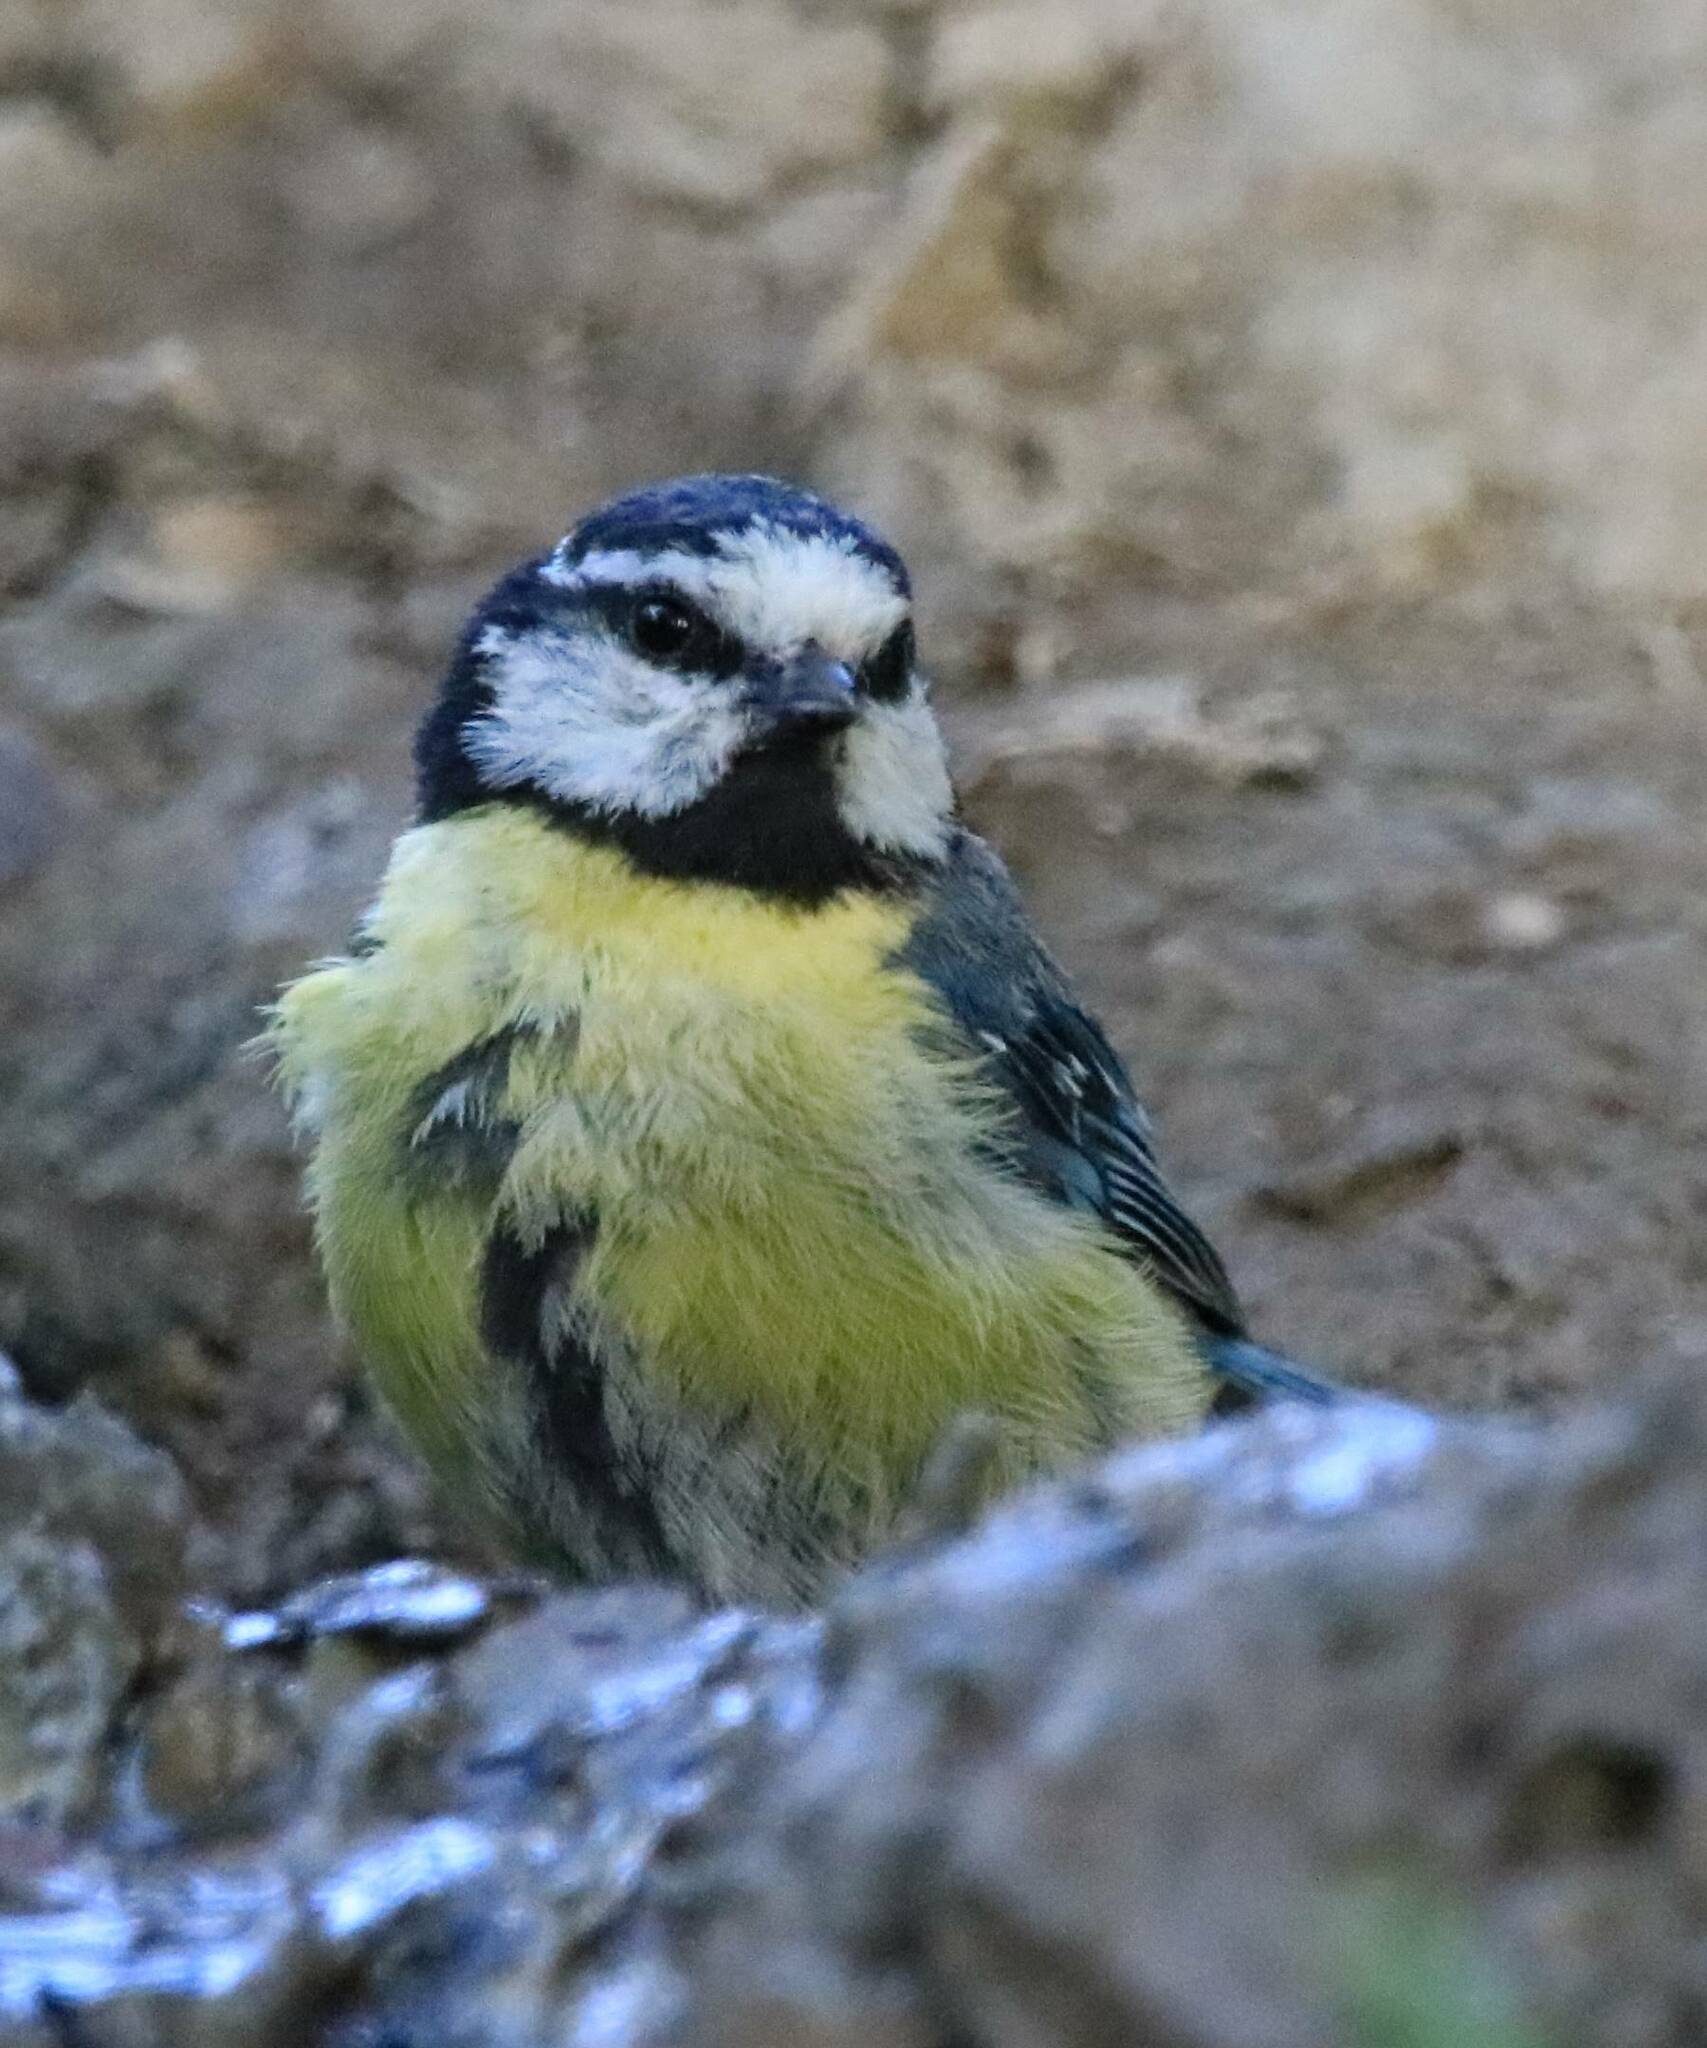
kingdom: Animalia
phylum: Chordata
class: Aves
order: Passeriformes
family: Paridae
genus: Cyanistes
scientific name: Cyanistes teneriffae
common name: African blue tit
